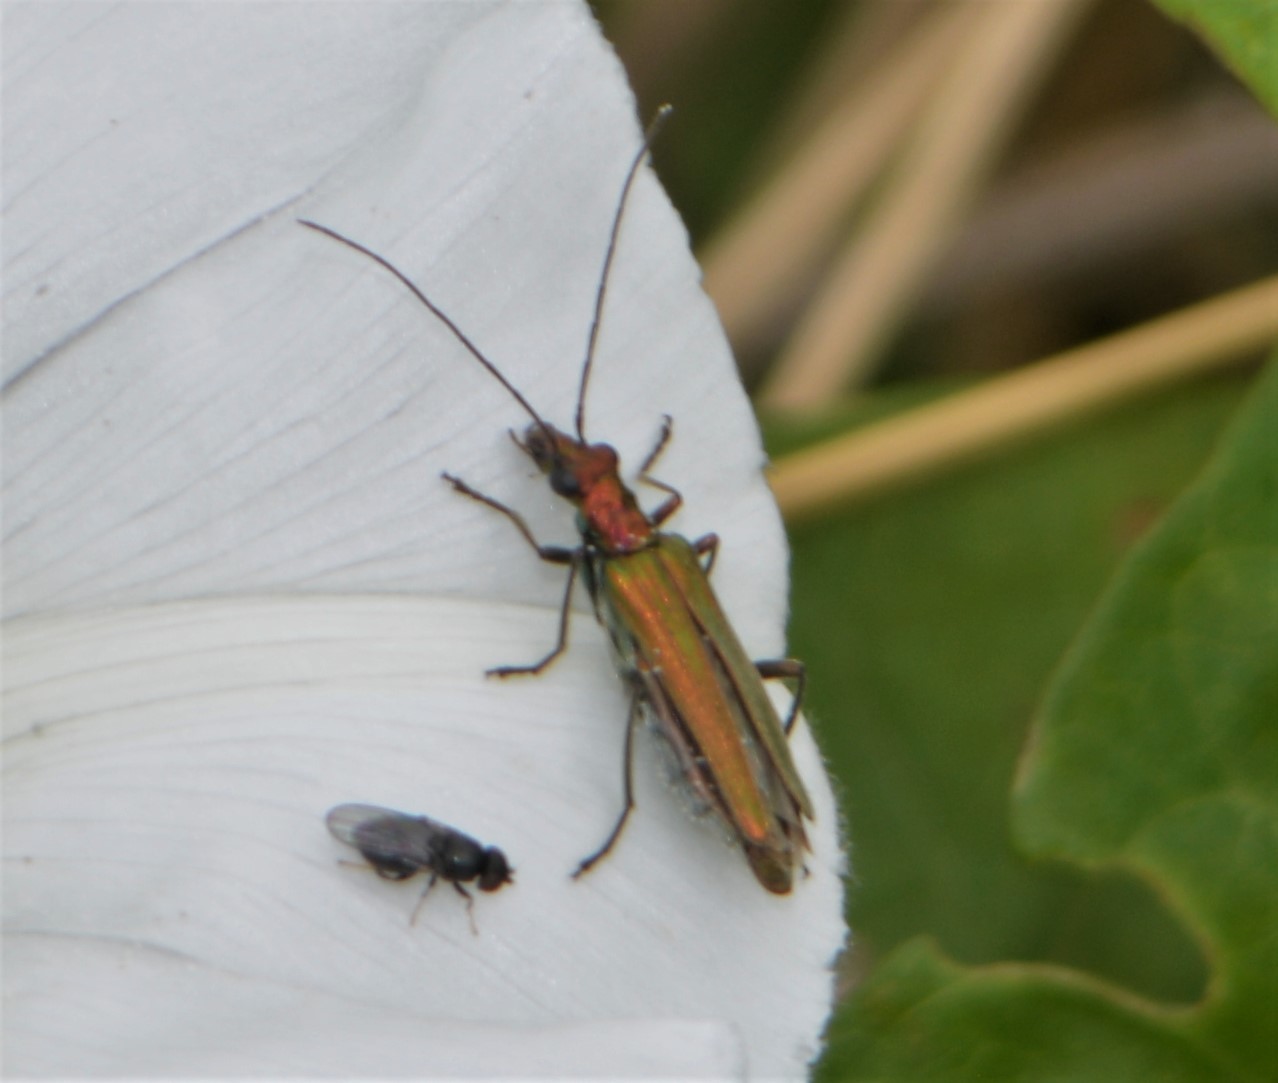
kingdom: Animalia
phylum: Arthropoda
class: Insecta
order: Coleoptera
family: Oedemeridae
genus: Oedemera
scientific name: Oedemera nobilis
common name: Swollen-thighed beetle
